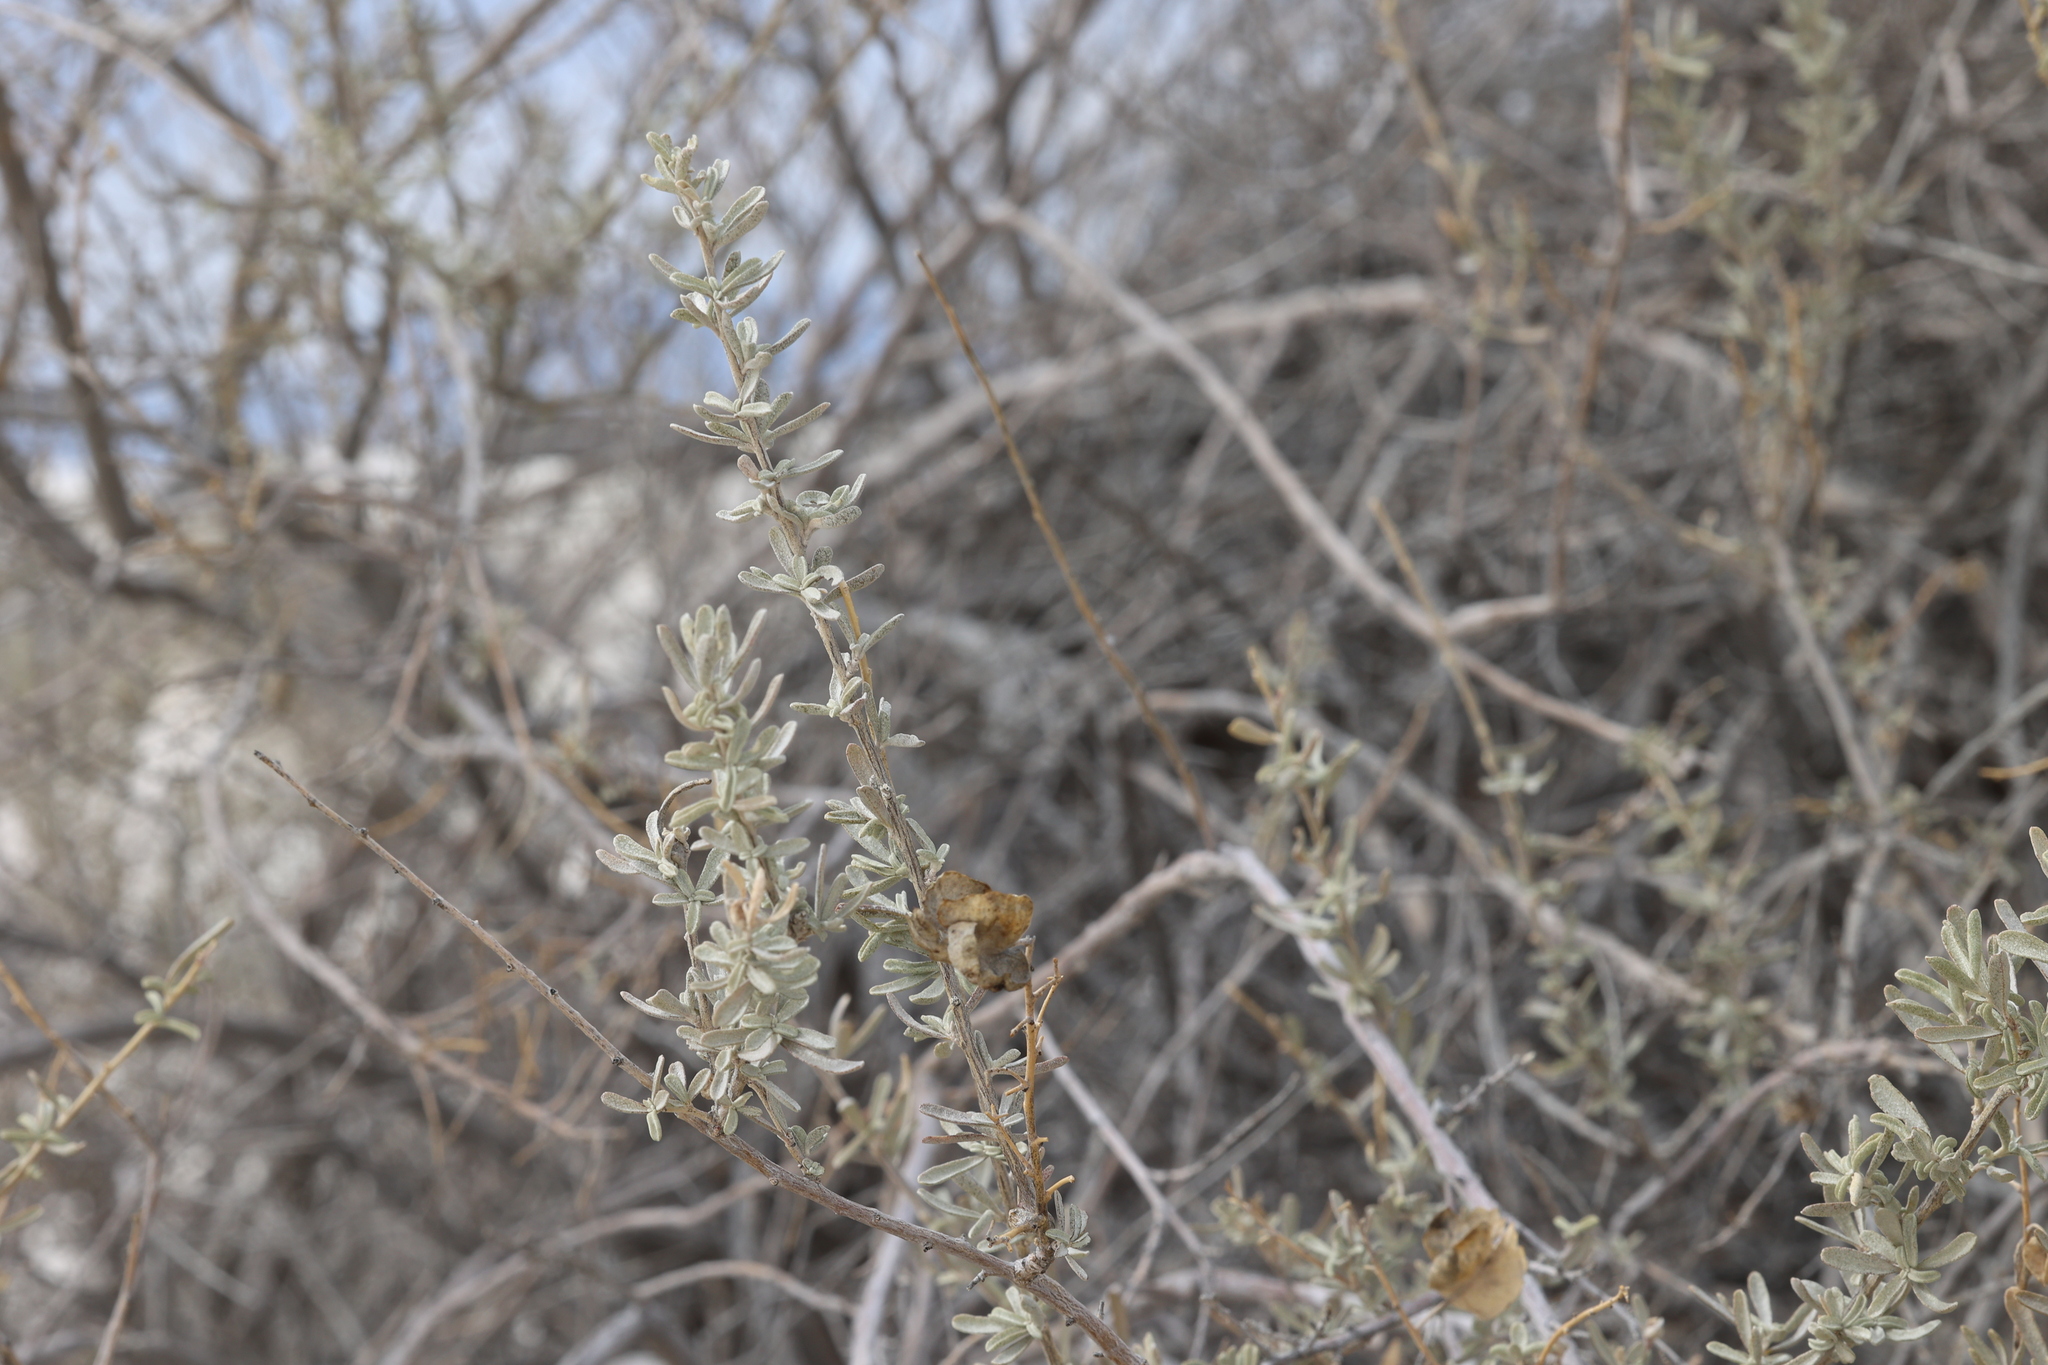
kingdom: Plantae
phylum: Tracheophyta
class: Magnoliopsida
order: Caryophyllales
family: Amaranthaceae
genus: Atriplex
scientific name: Atriplex canescens
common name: Four-wing saltbush
